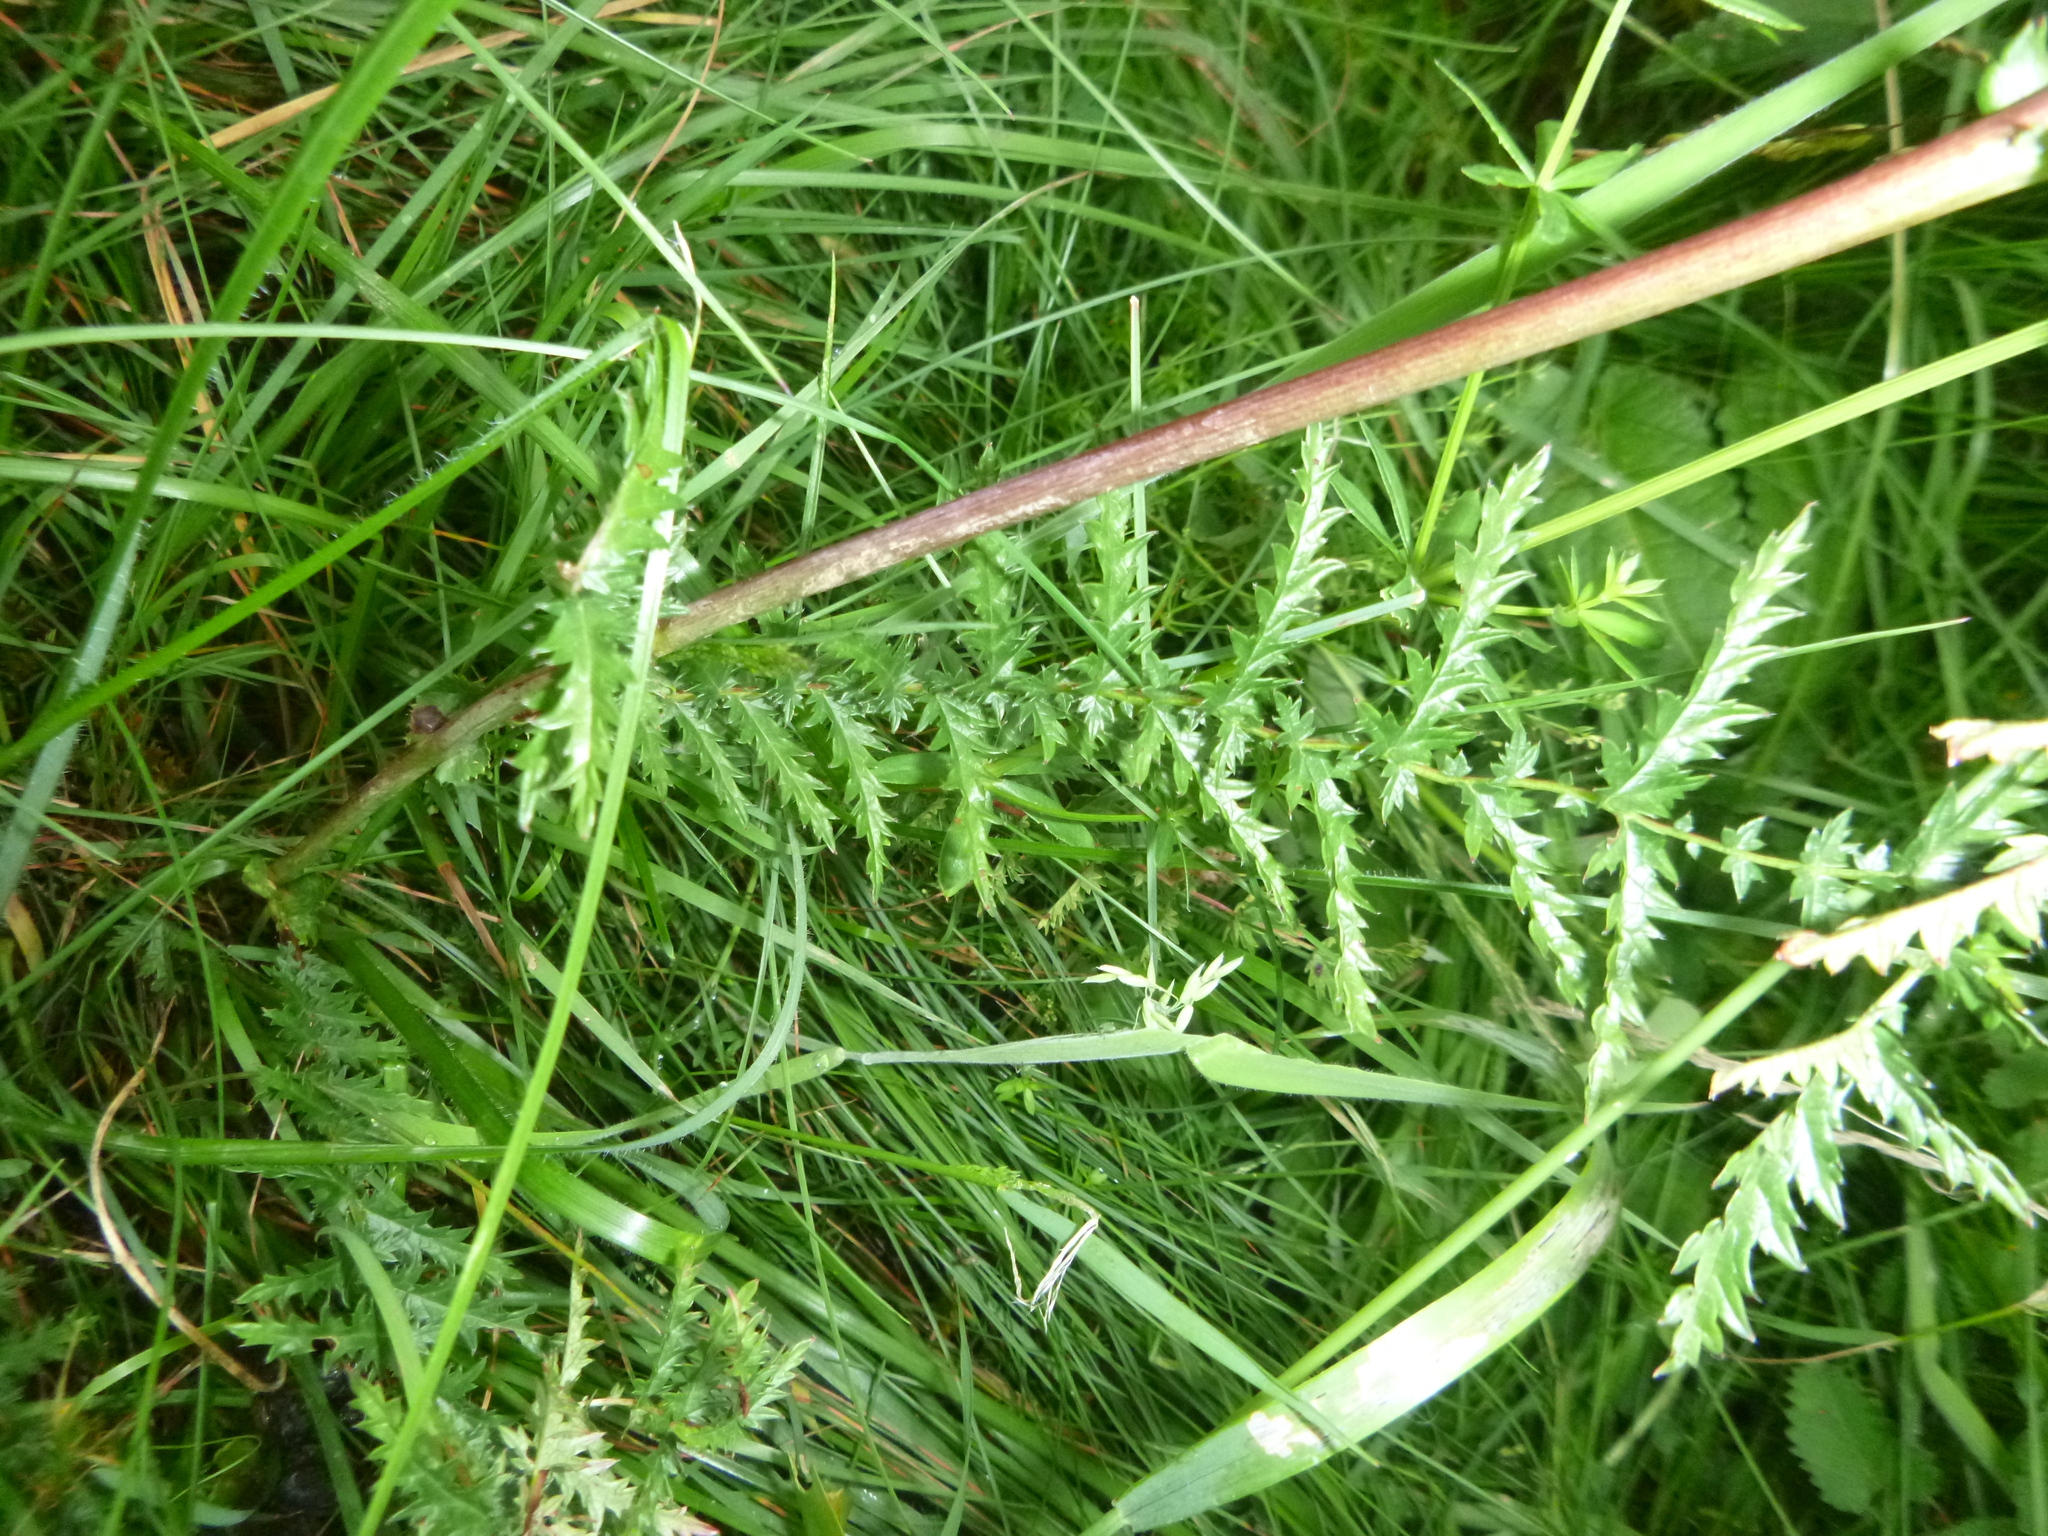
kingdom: Plantae
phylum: Tracheophyta
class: Magnoliopsida
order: Rosales
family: Rosaceae
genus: Filipendula
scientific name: Filipendula vulgaris
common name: Dropwort
